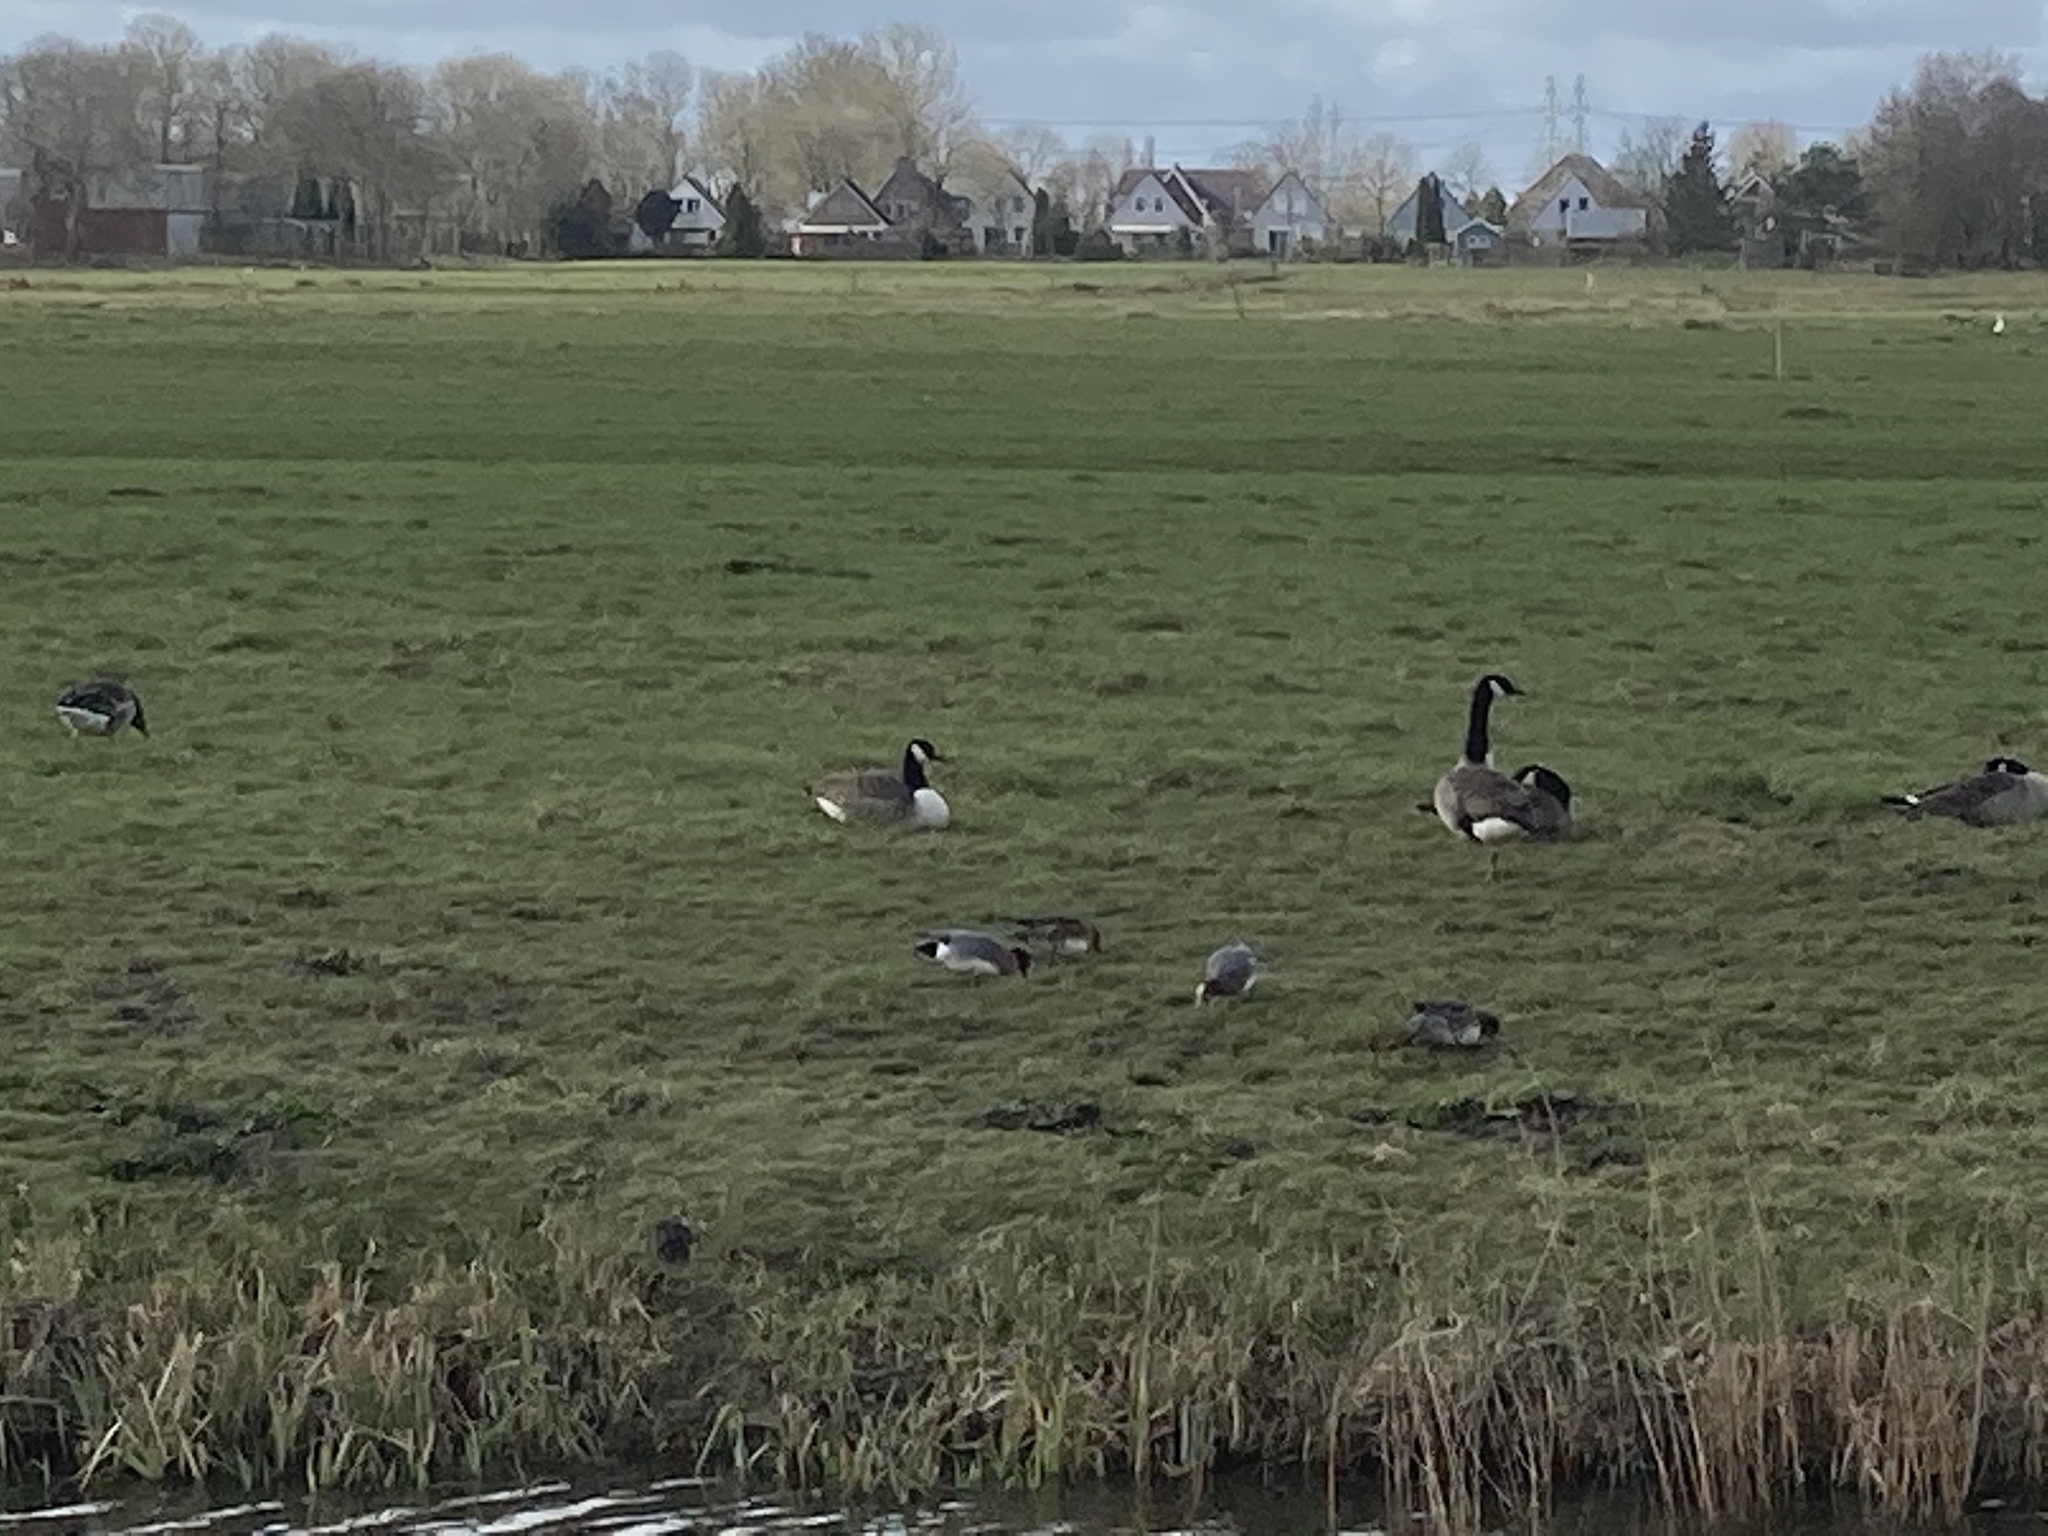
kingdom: Animalia
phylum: Chordata
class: Aves
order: Anseriformes
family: Anatidae
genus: Mareca
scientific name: Mareca penelope
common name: Eurasian wigeon
